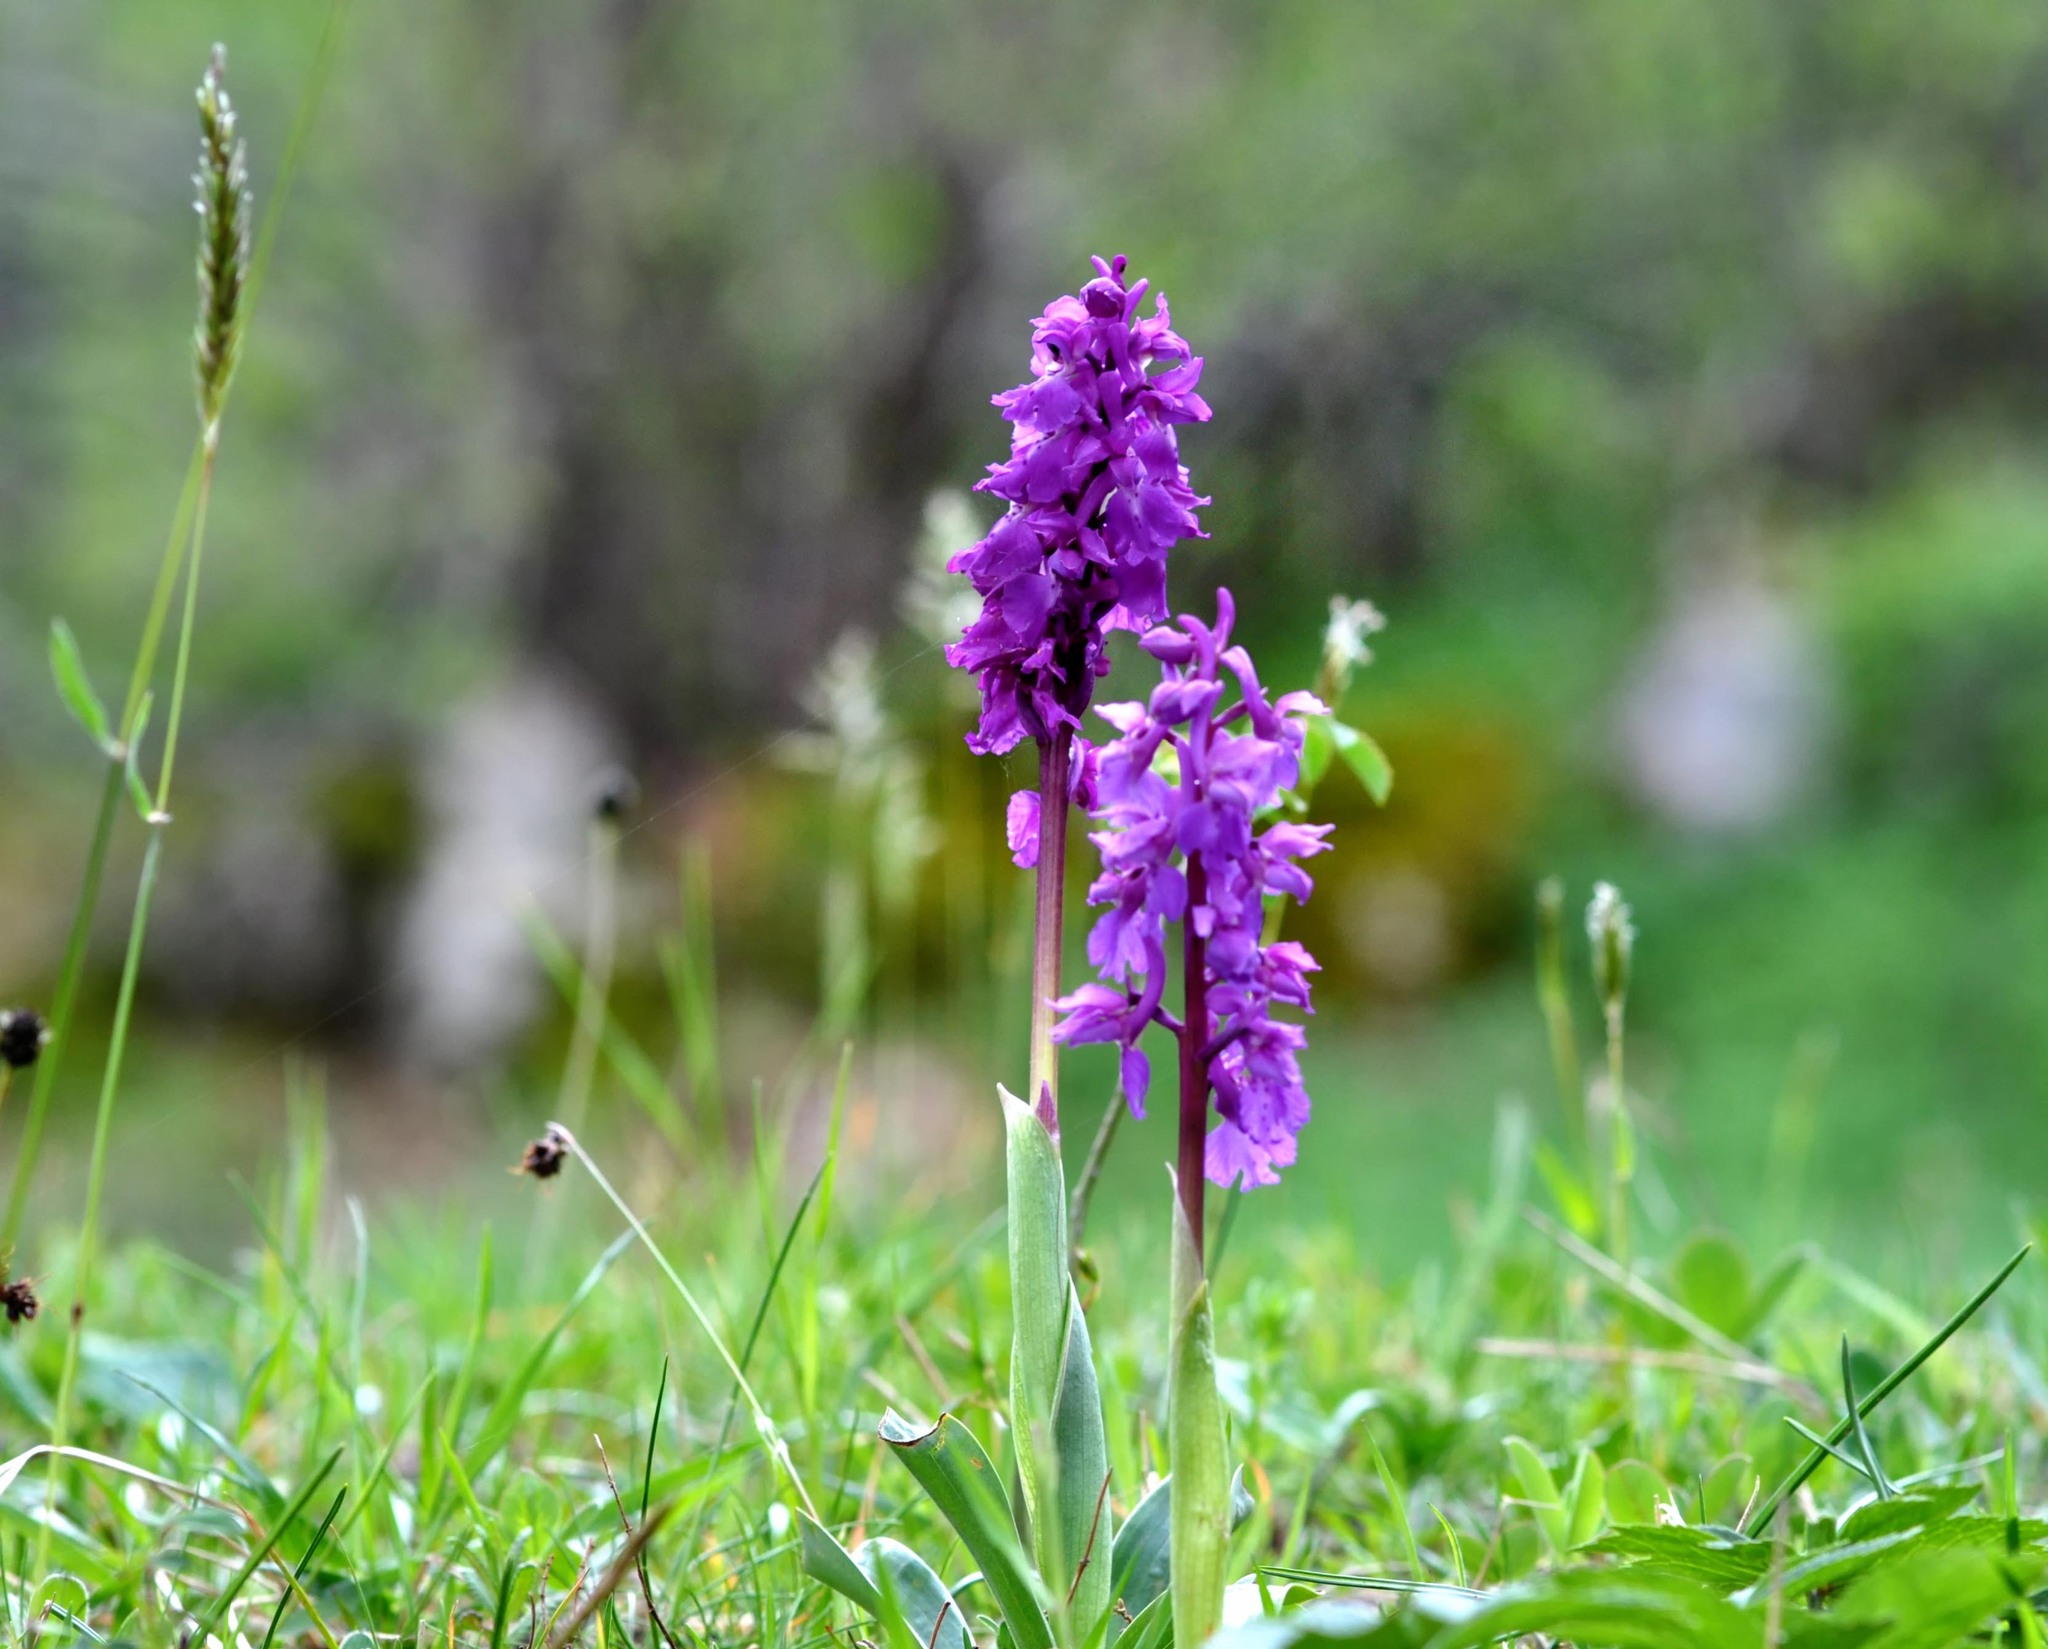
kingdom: Plantae
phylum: Tracheophyta
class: Liliopsida
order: Asparagales
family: Orchidaceae
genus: Orchis
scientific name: Orchis mascula
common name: Early-purple orchid
